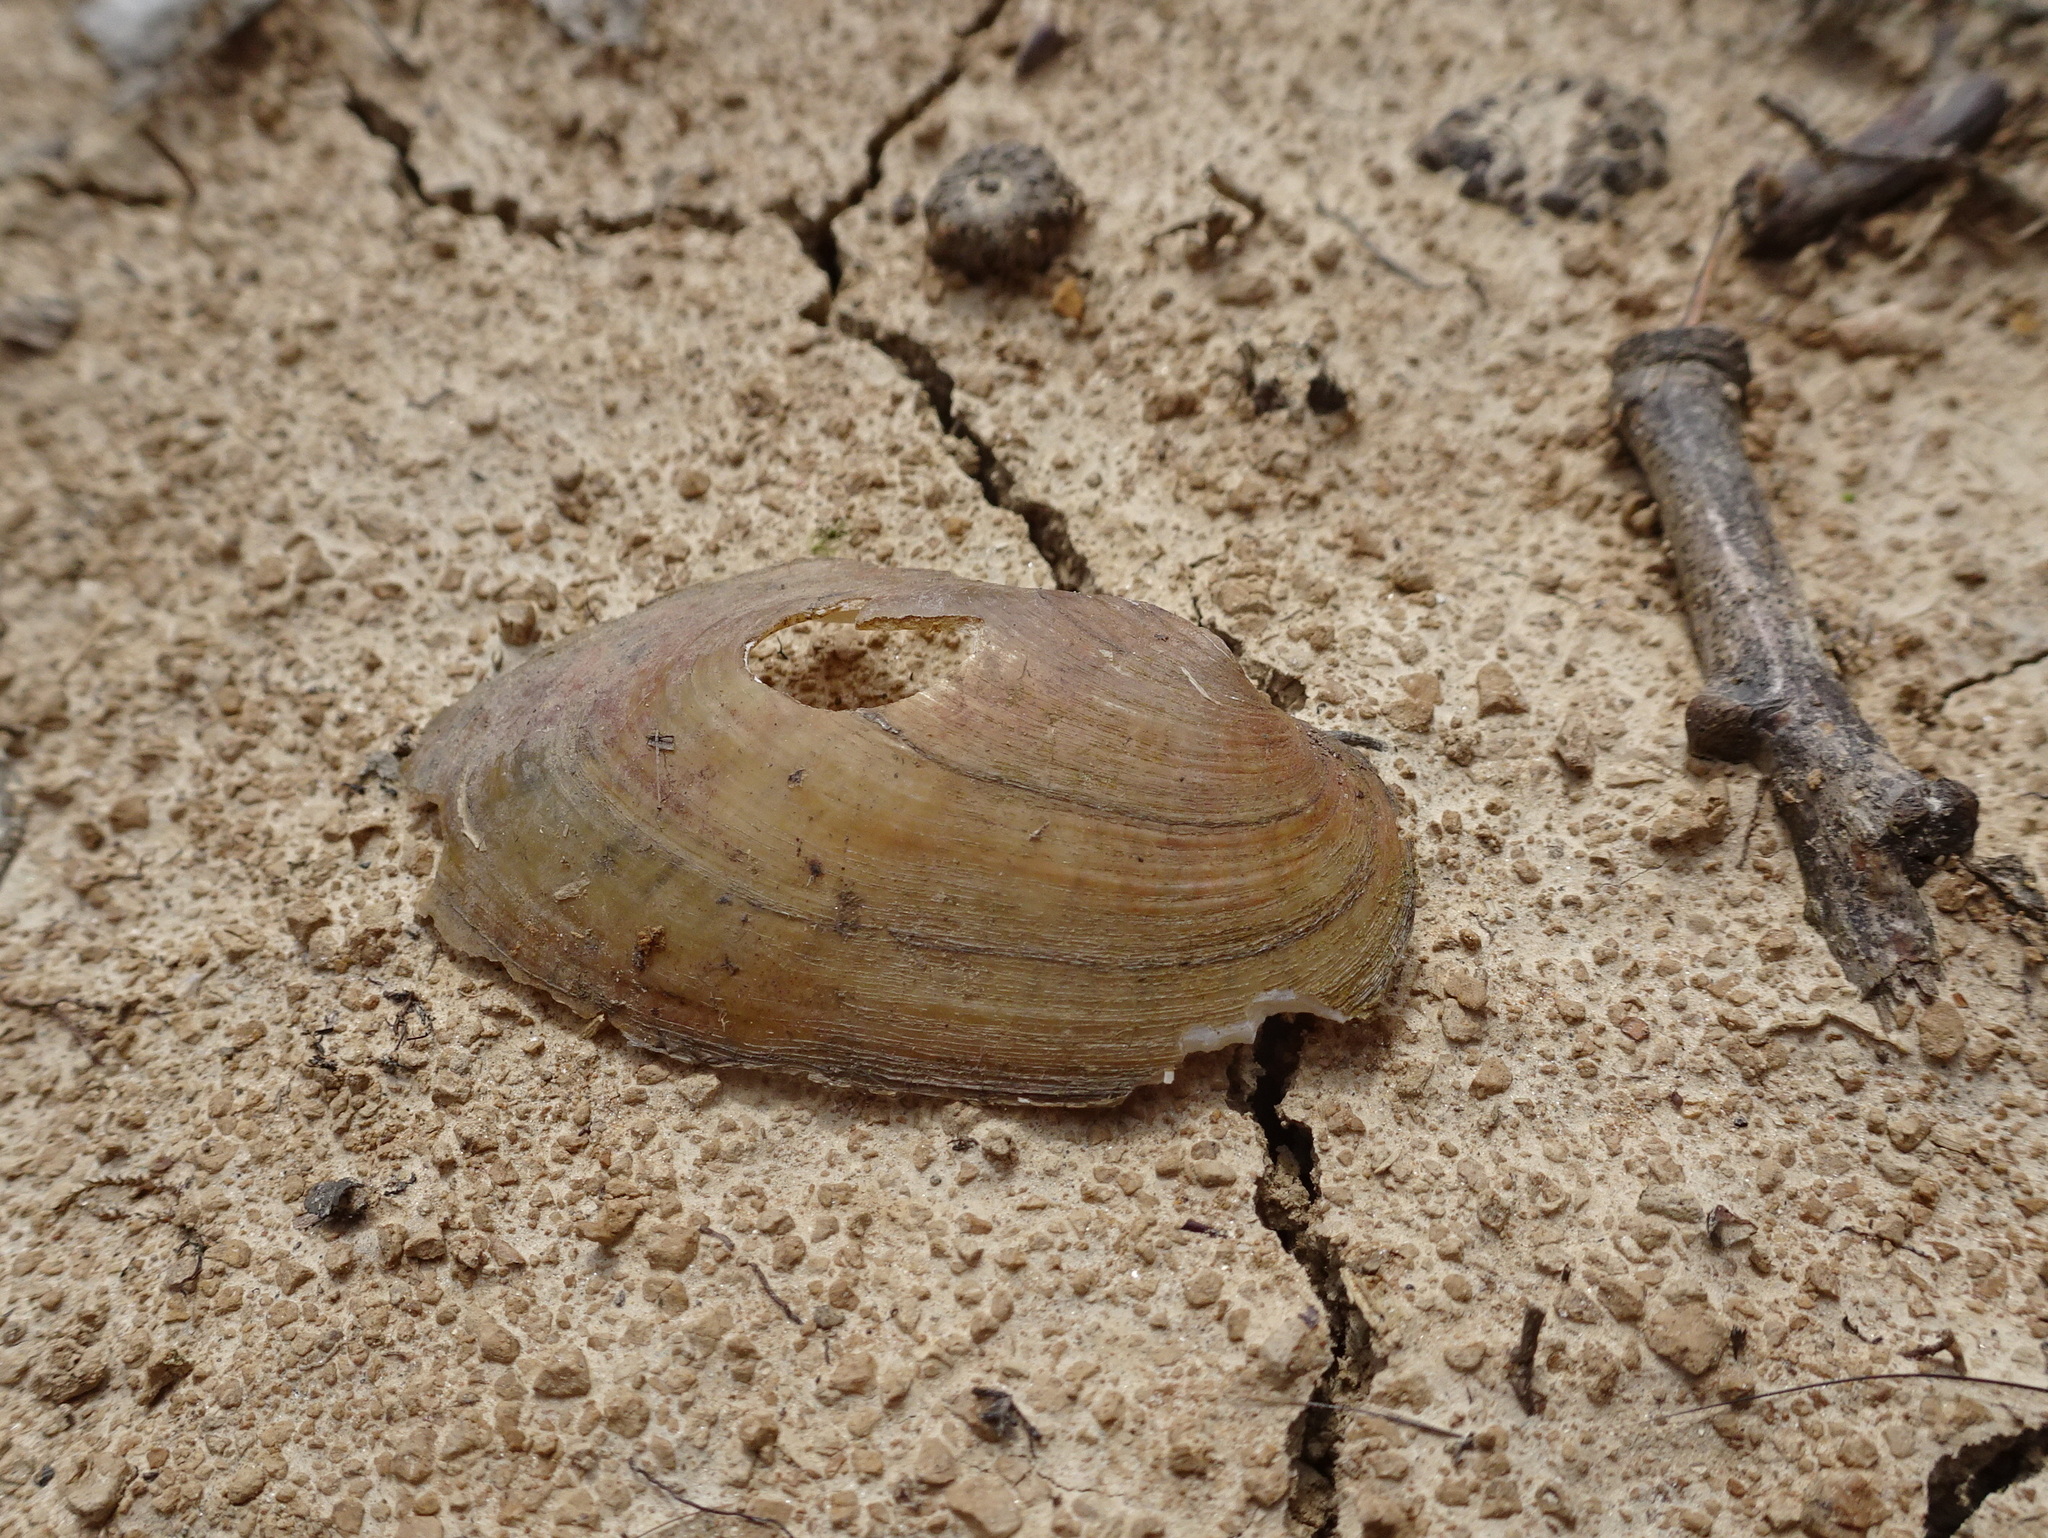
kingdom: Animalia
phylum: Mollusca
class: Bivalvia
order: Unionida
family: Unionidae
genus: Lampsilis
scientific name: Lampsilis siliquoidea
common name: Fatmucket
